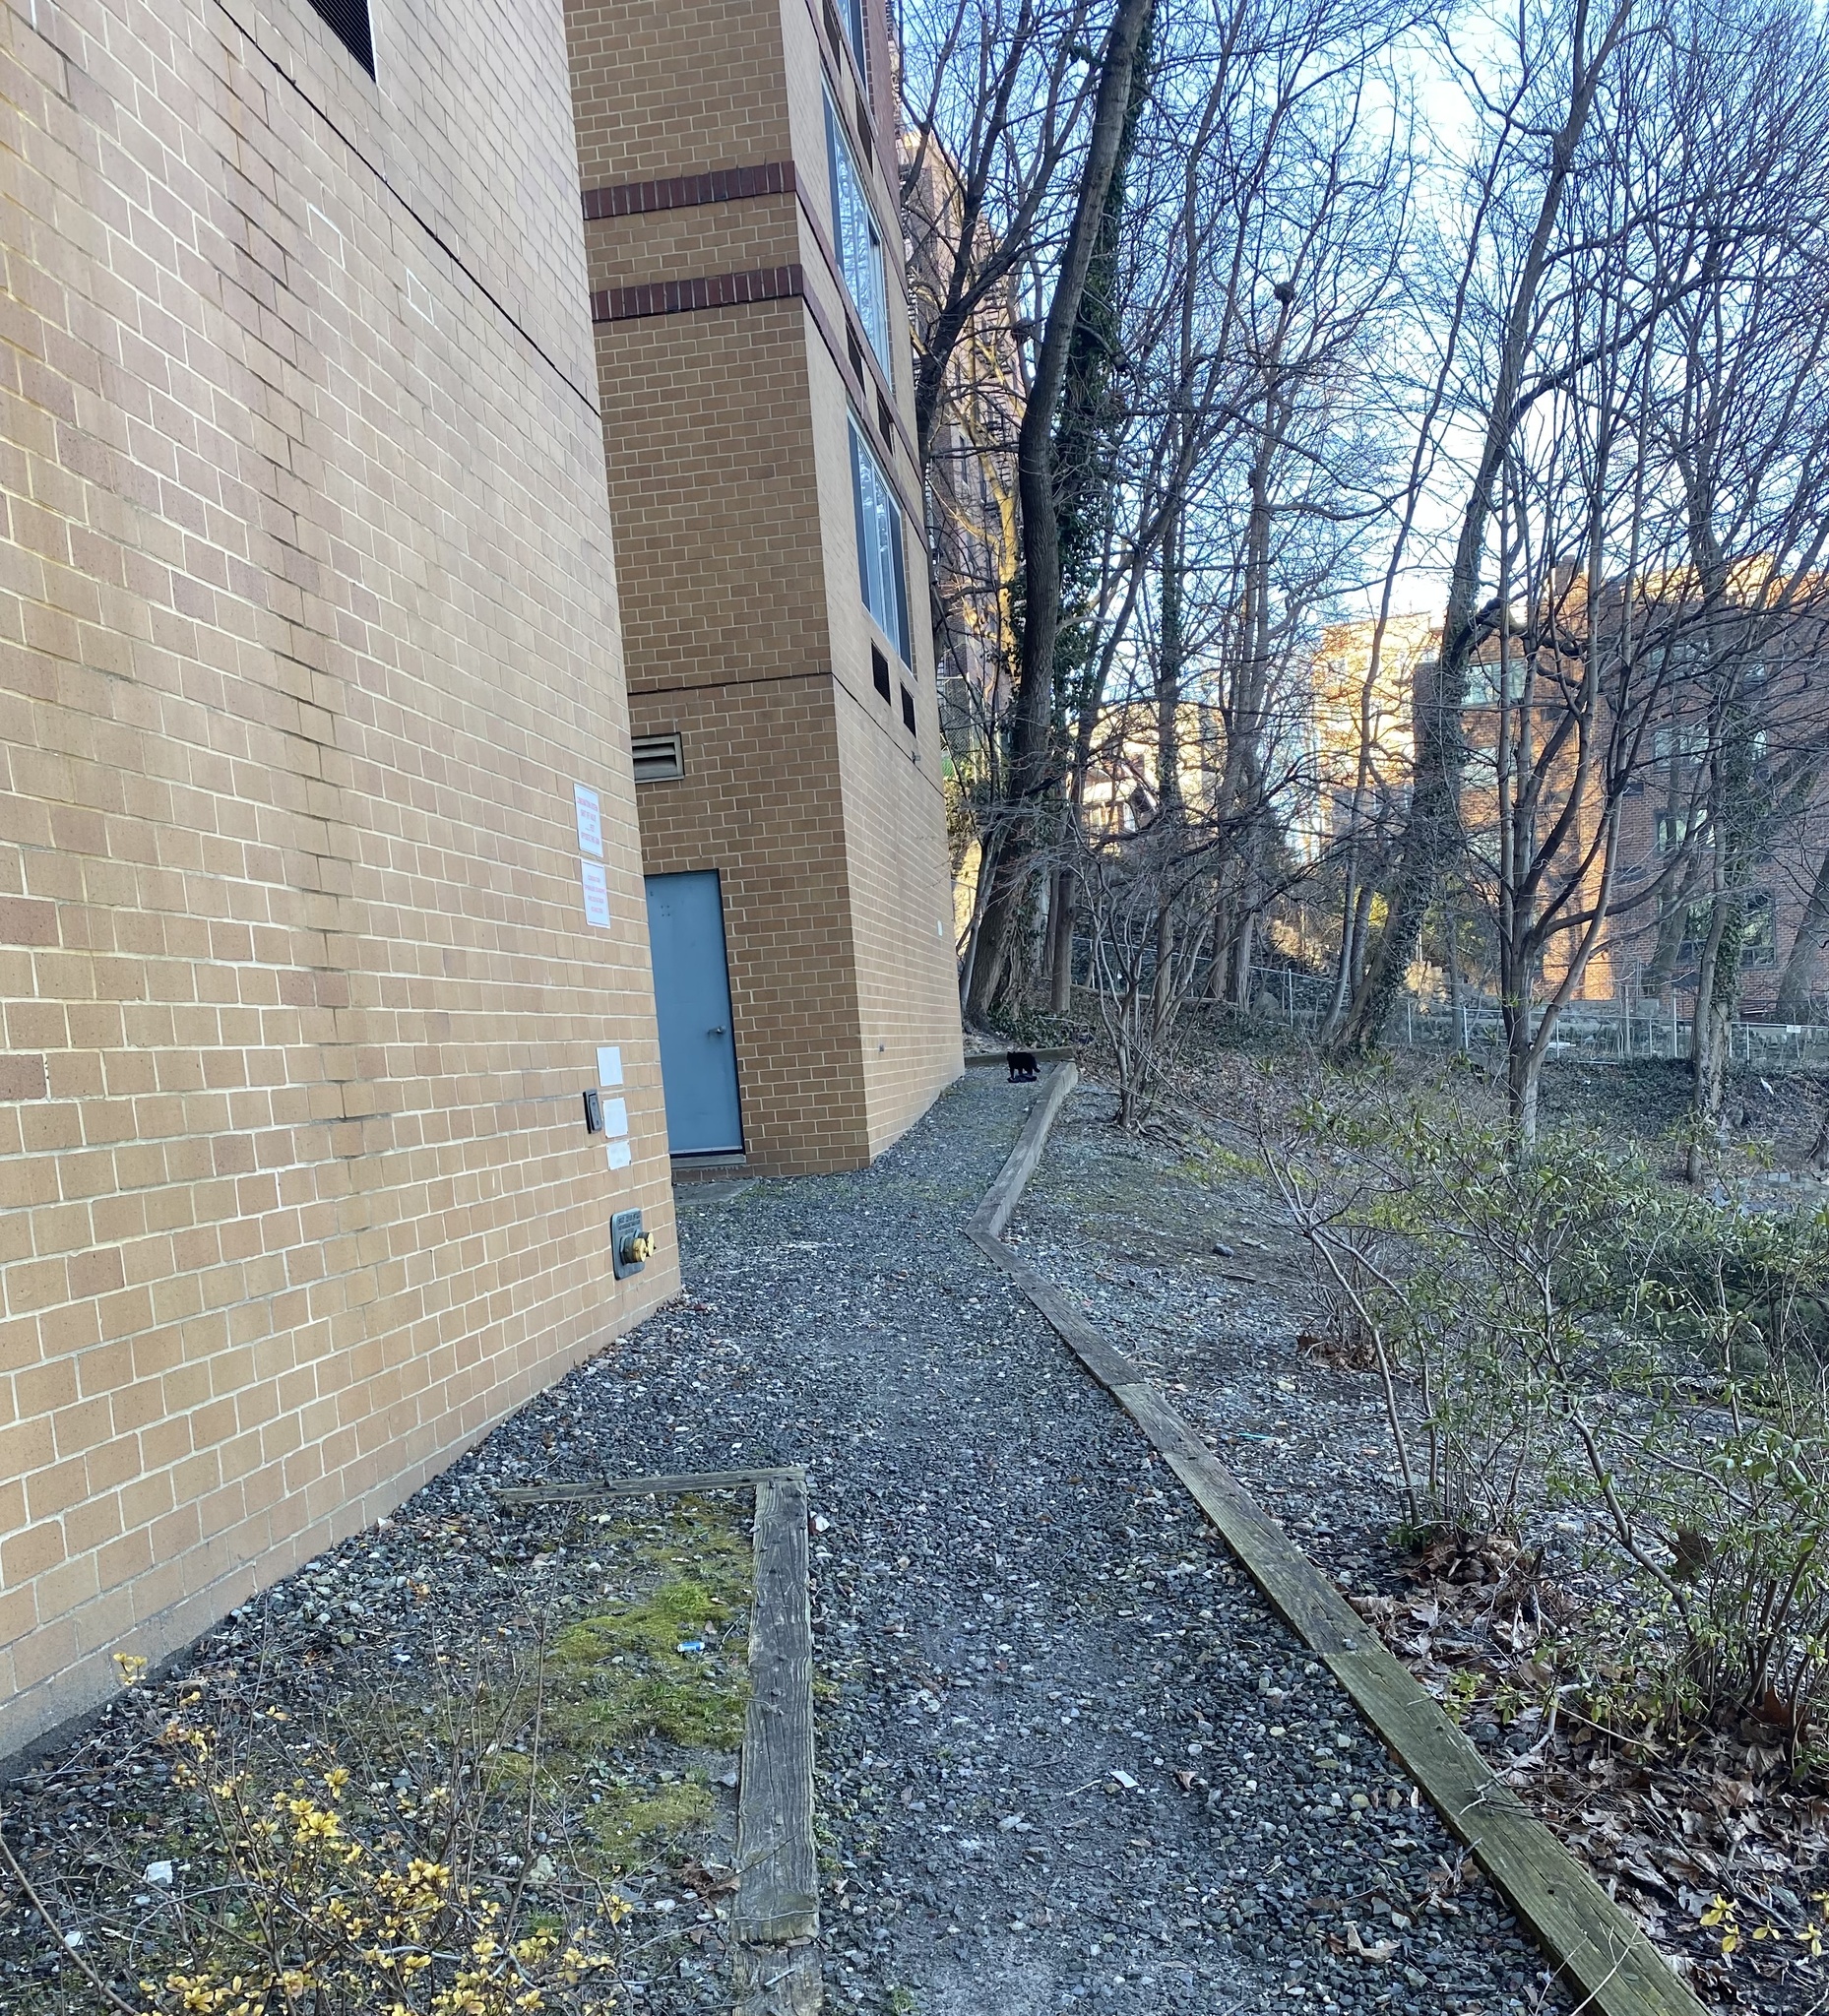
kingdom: Animalia
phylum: Chordata
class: Mammalia
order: Carnivora
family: Felidae
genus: Felis
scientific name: Felis catus
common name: Domestic cat
